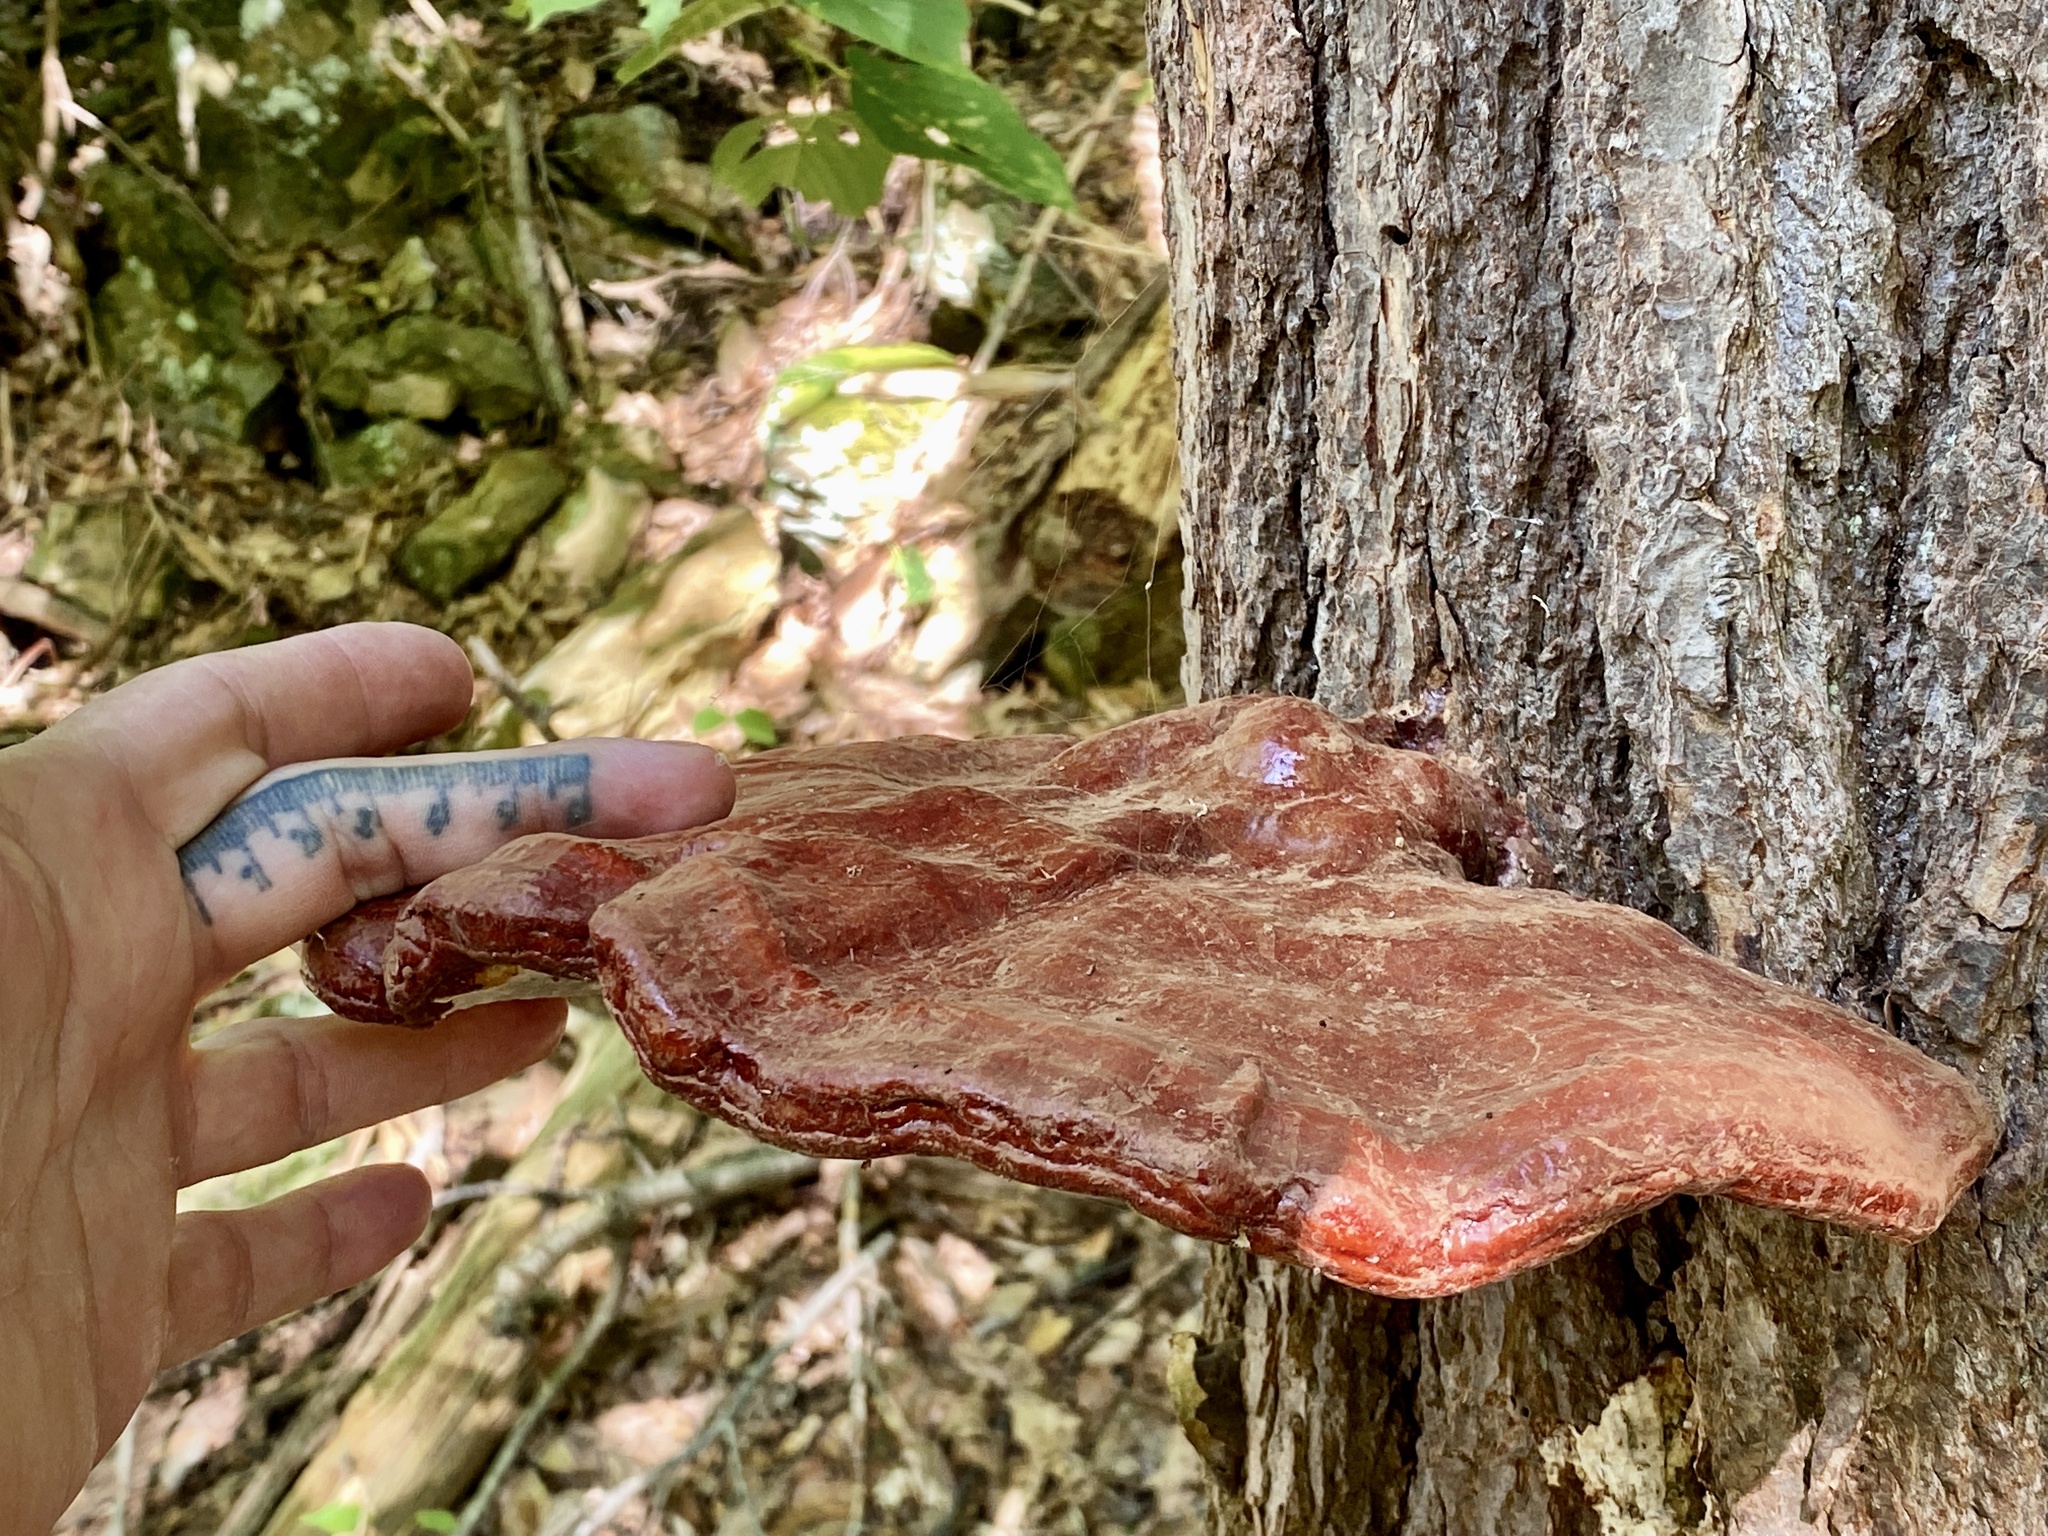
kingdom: Fungi
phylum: Basidiomycota
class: Agaricomycetes
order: Polyporales
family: Polyporaceae
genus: Ganoderma
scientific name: Ganoderma tsugae
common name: Hemlock varnish shelf
